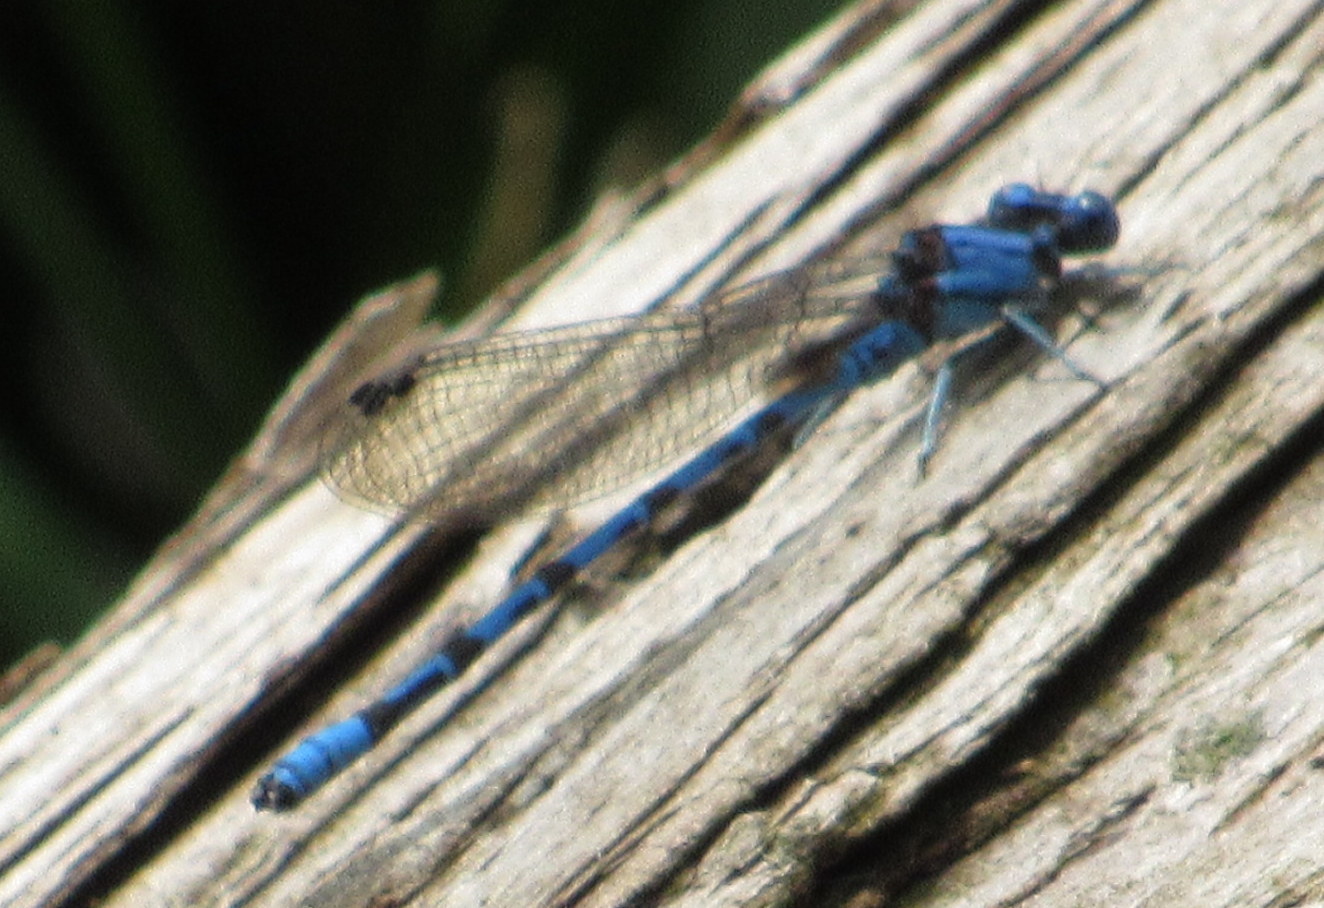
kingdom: Animalia
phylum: Arthropoda
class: Insecta
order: Odonata
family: Coenagrionidae
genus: Argia
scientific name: Argia funebris
